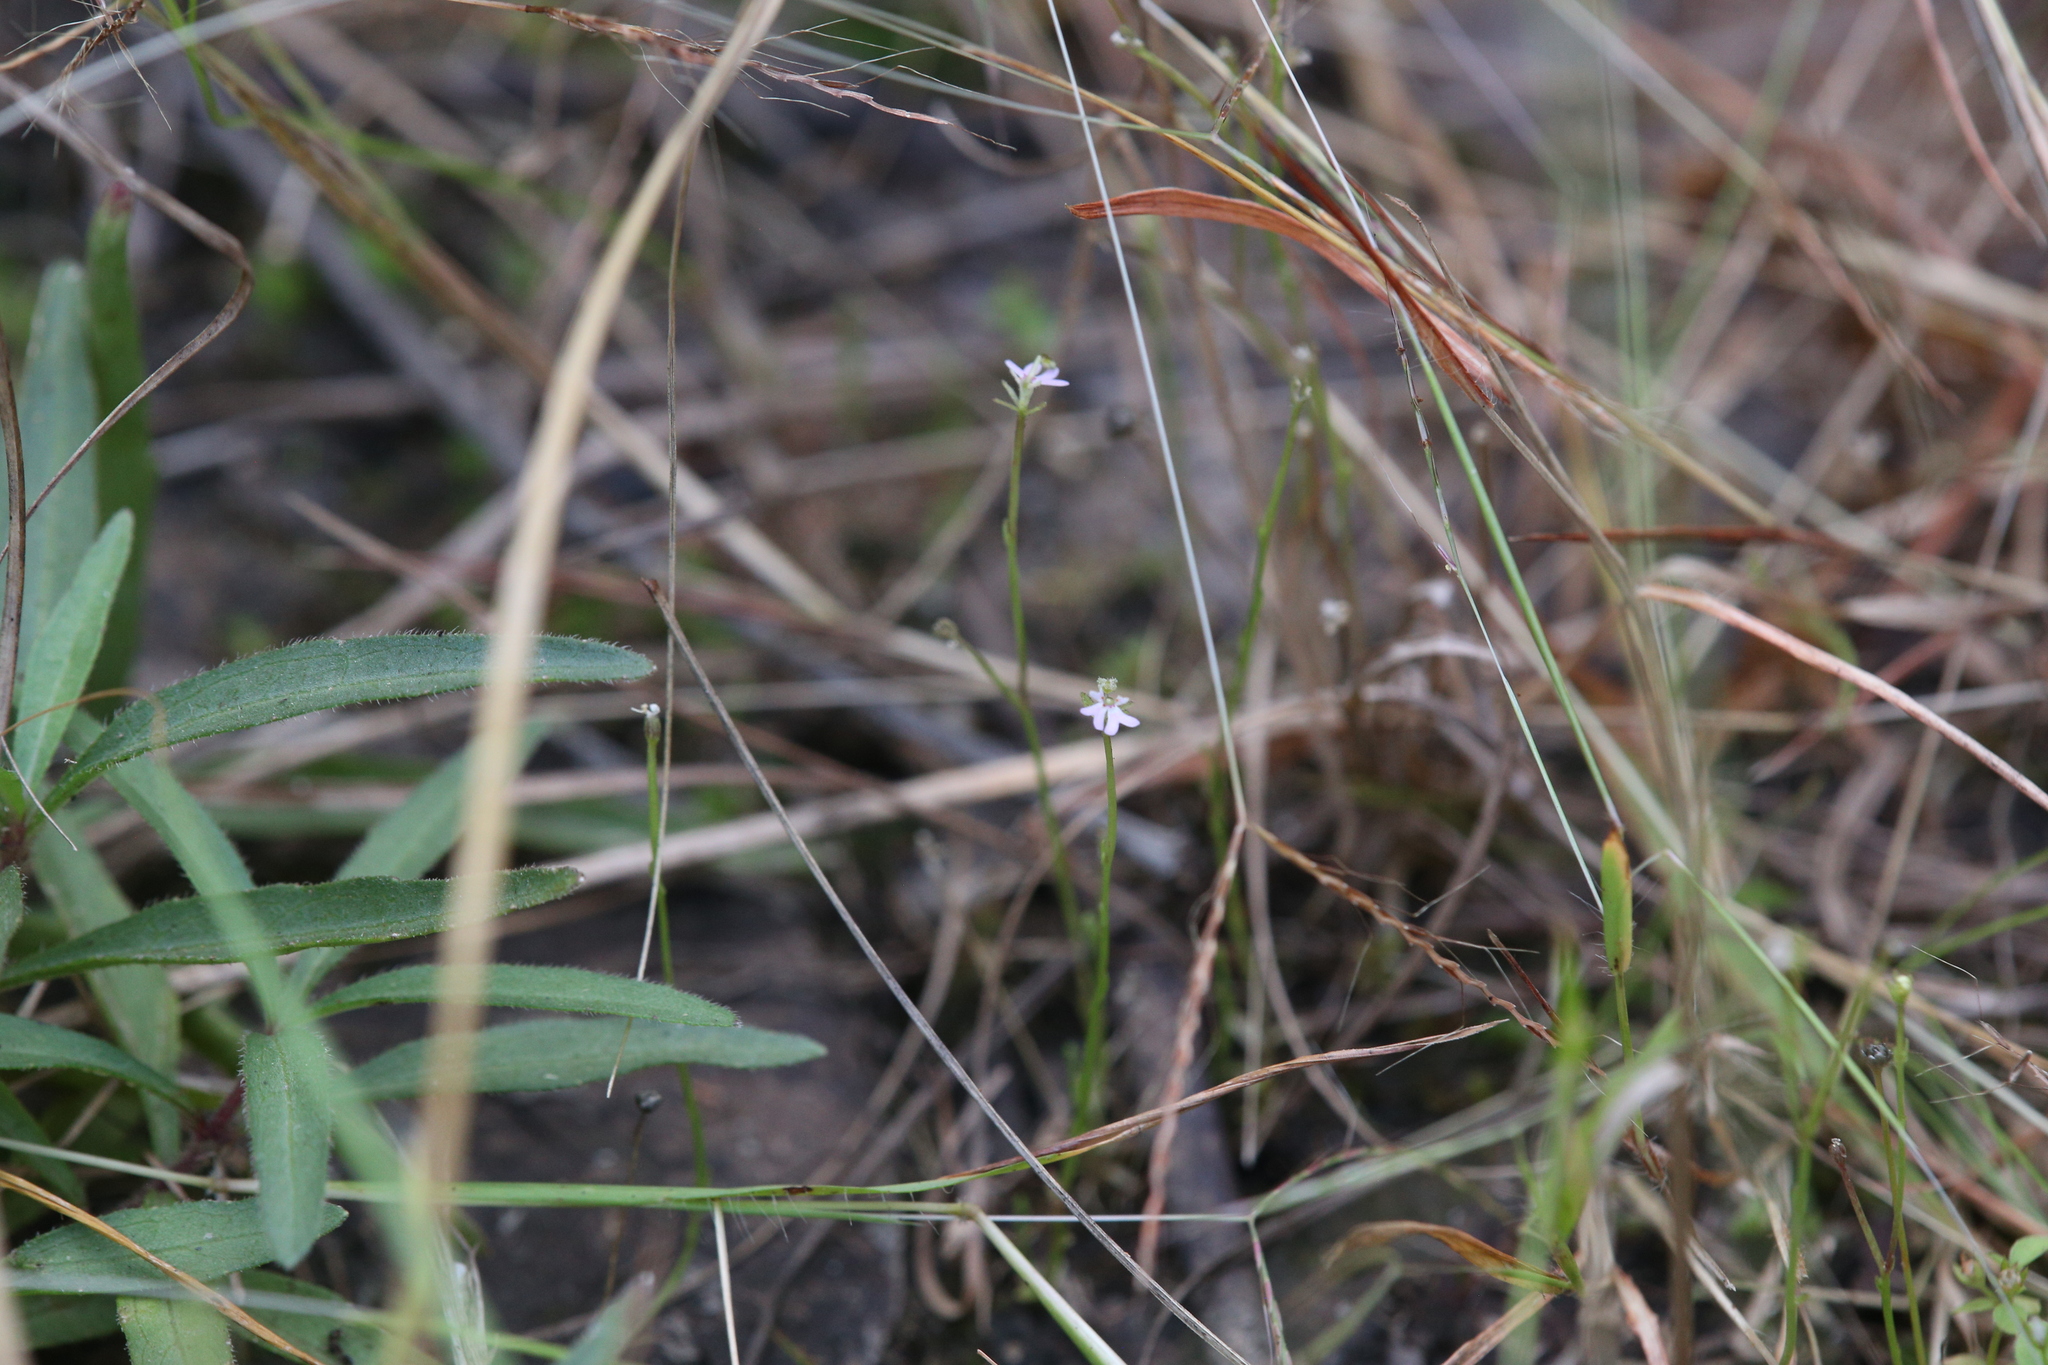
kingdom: Plantae
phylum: Tracheophyta
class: Magnoliopsida
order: Asterales
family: Stylidiaceae
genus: Stylidium
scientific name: Stylidium diffusum
